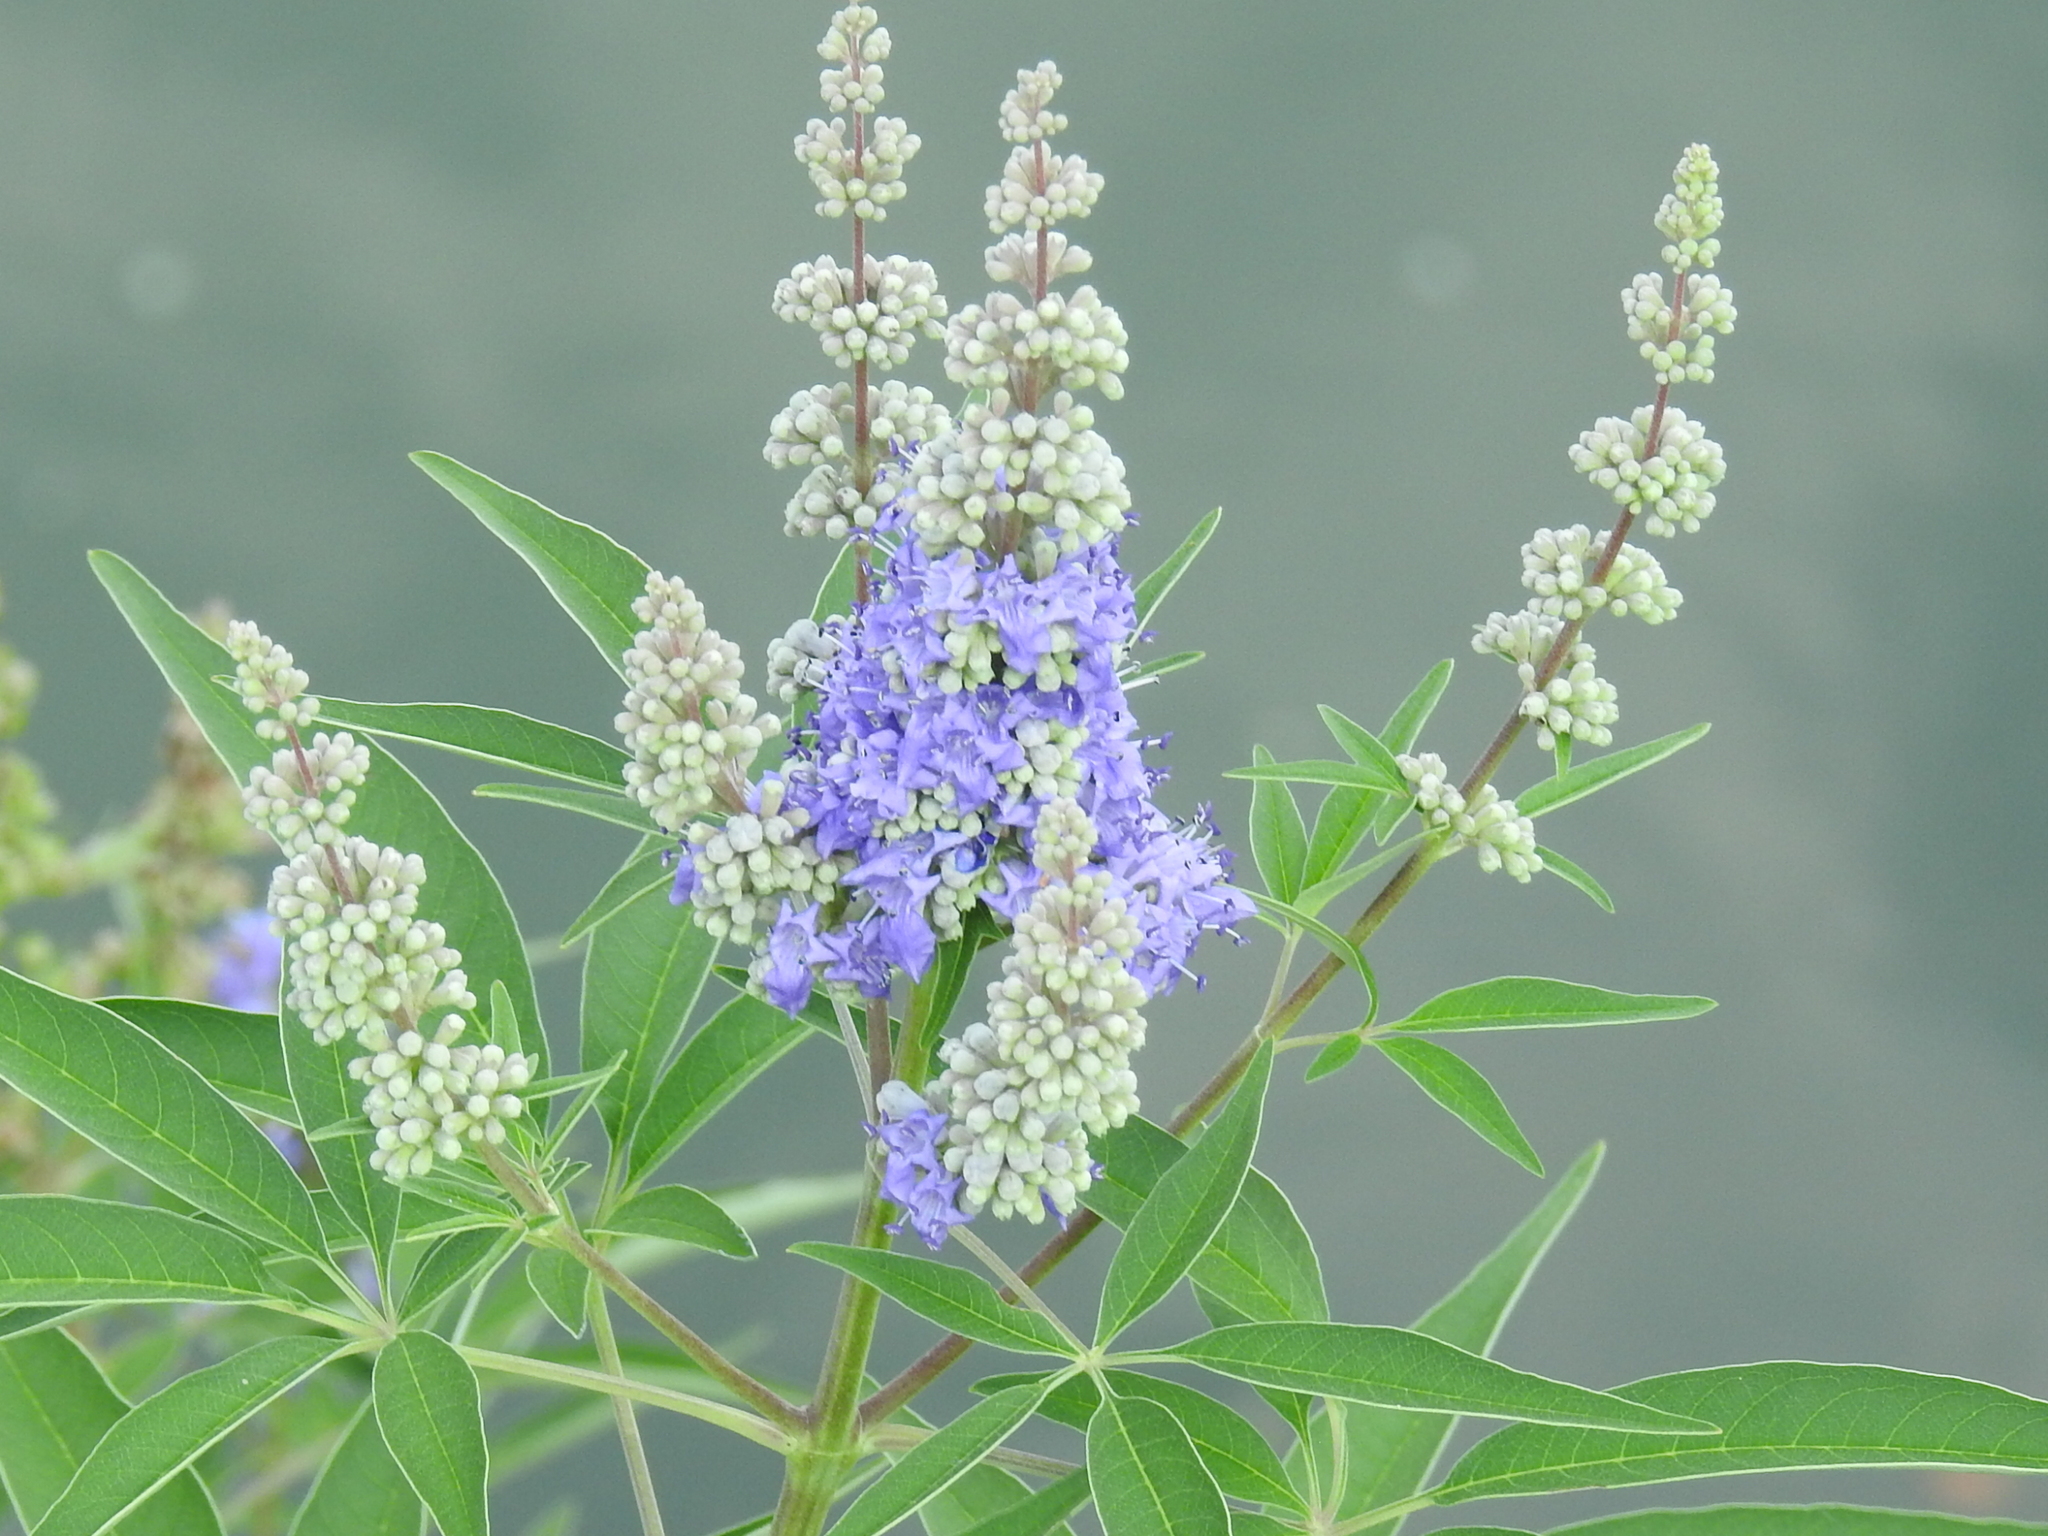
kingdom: Plantae
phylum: Tracheophyta
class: Magnoliopsida
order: Lamiales
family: Lamiaceae
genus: Vitex
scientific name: Vitex agnus-castus
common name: Chasteberry
